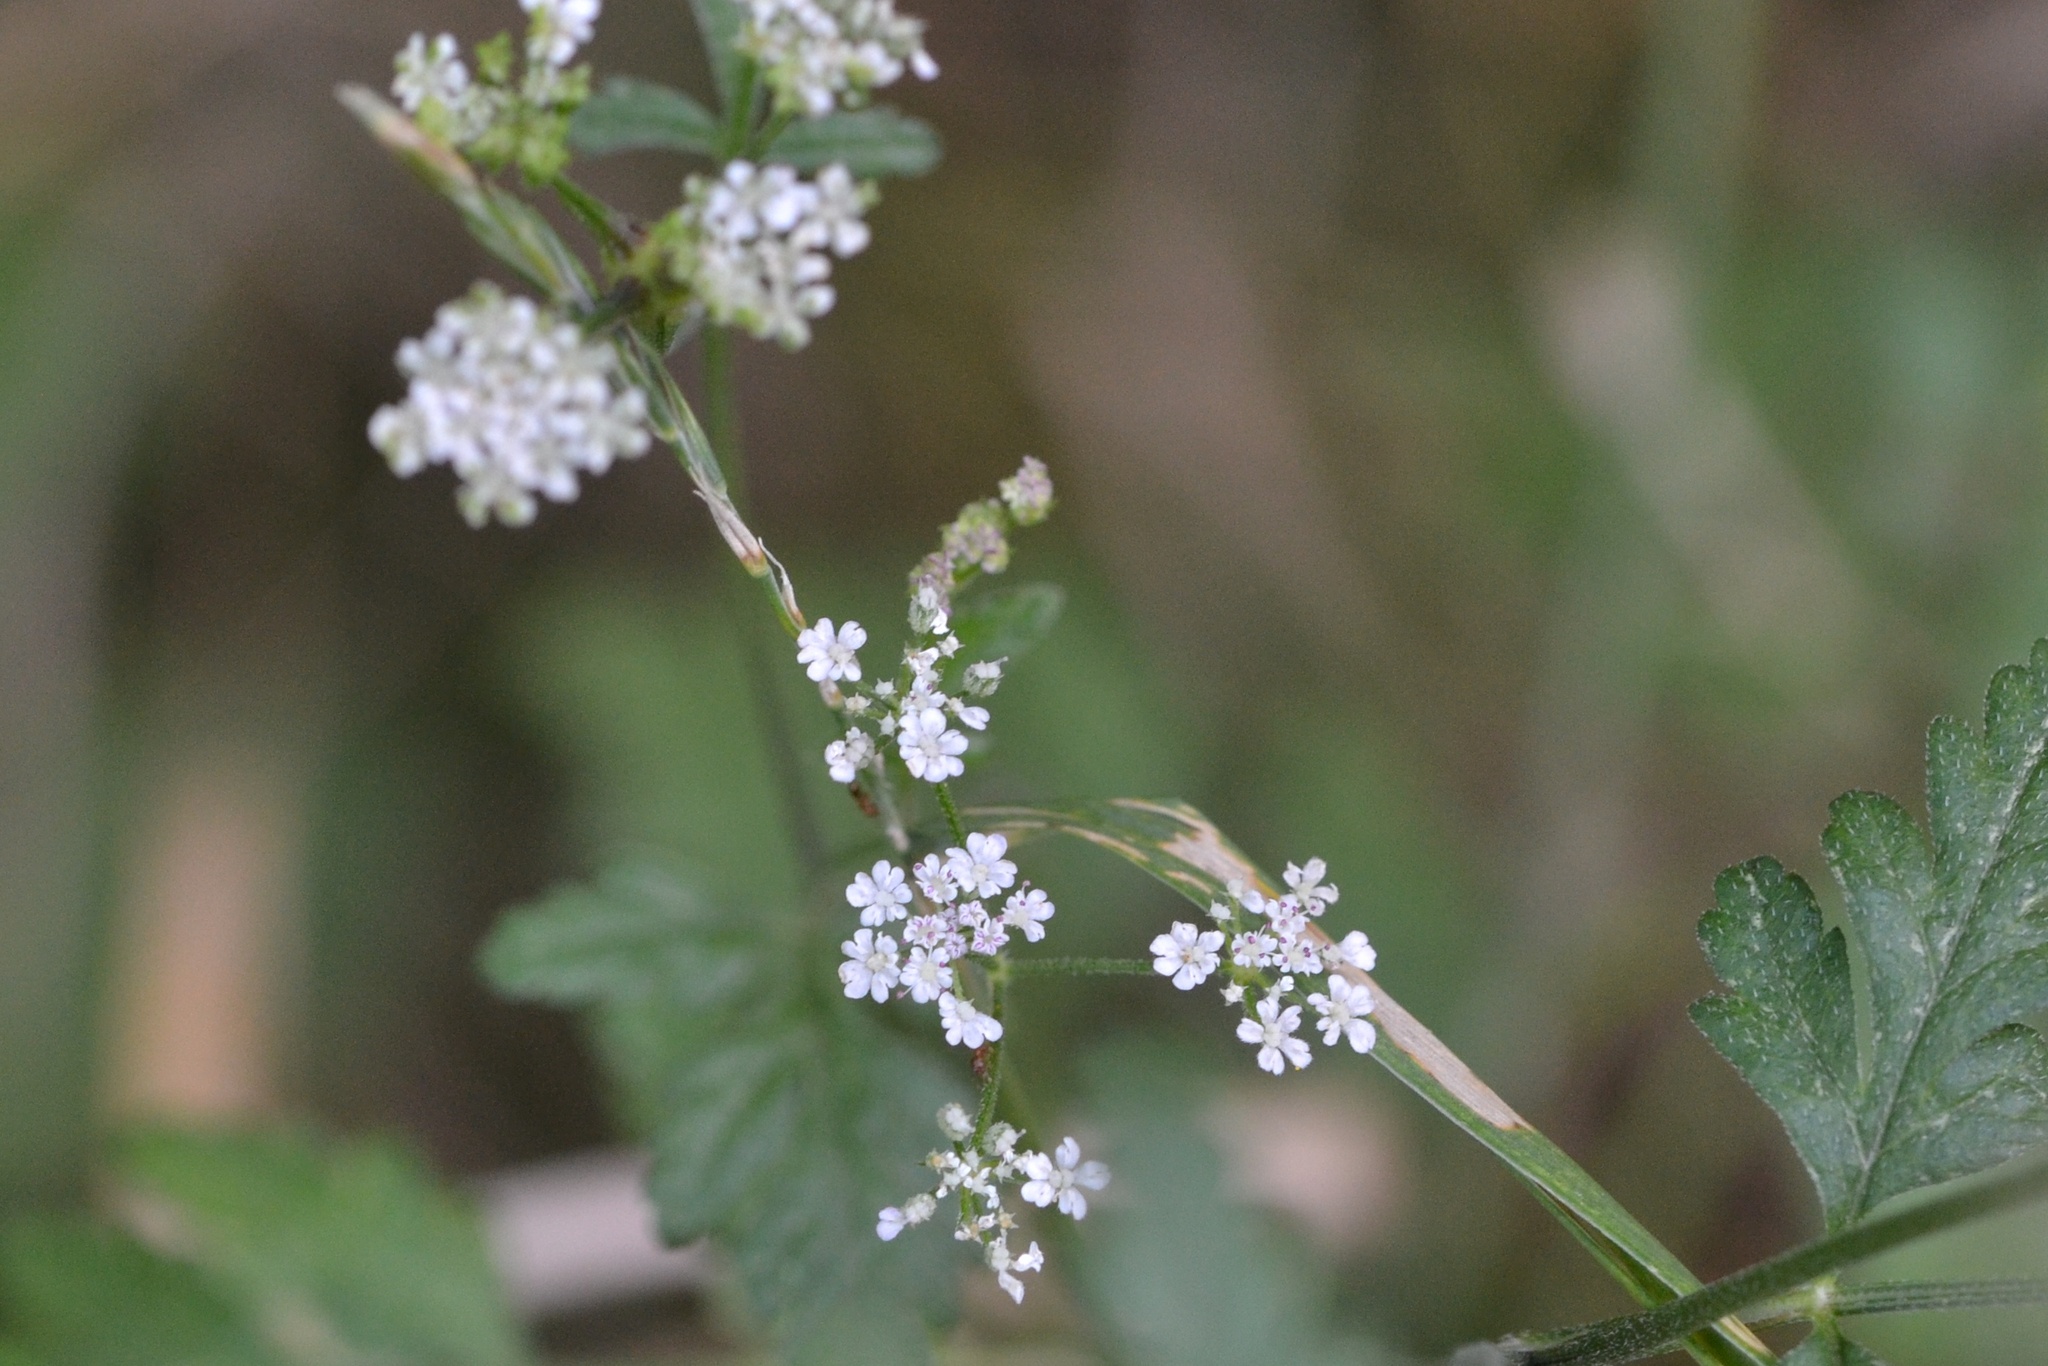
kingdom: Plantae
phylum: Tracheophyta
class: Magnoliopsida
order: Apiales
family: Apiaceae
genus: Torilis
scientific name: Torilis japonica
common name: Upright hedge-parsley
